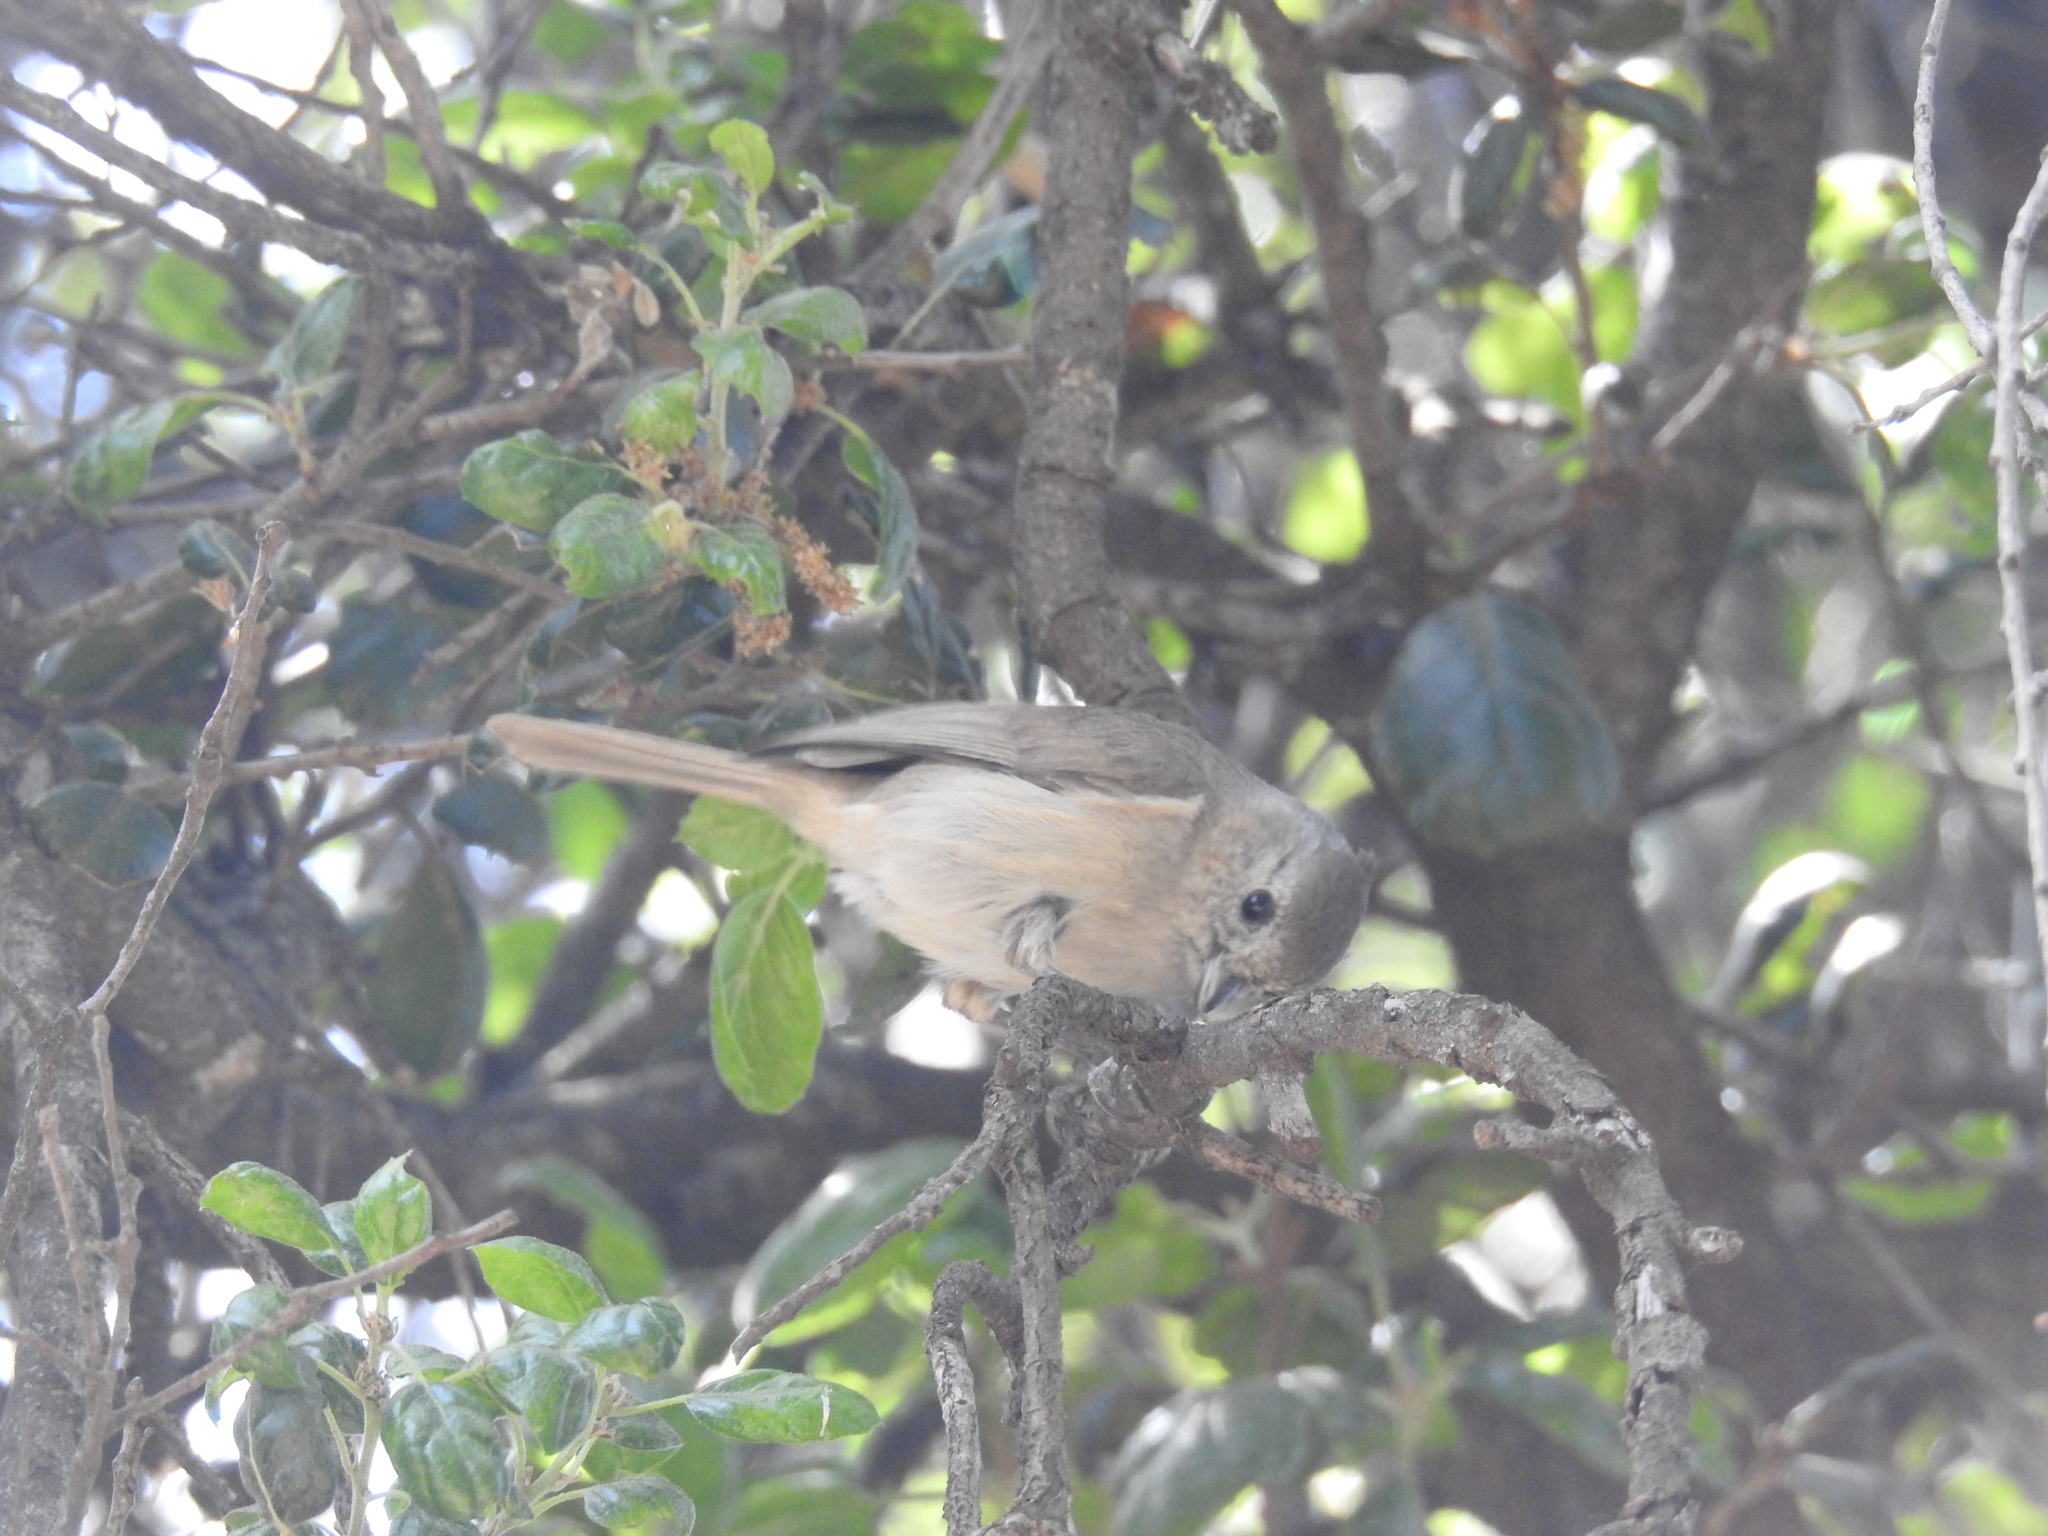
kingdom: Animalia
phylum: Chordata
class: Aves
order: Passeriformes
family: Paridae
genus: Baeolophus
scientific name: Baeolophus inornatus
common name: Oak titmouse
